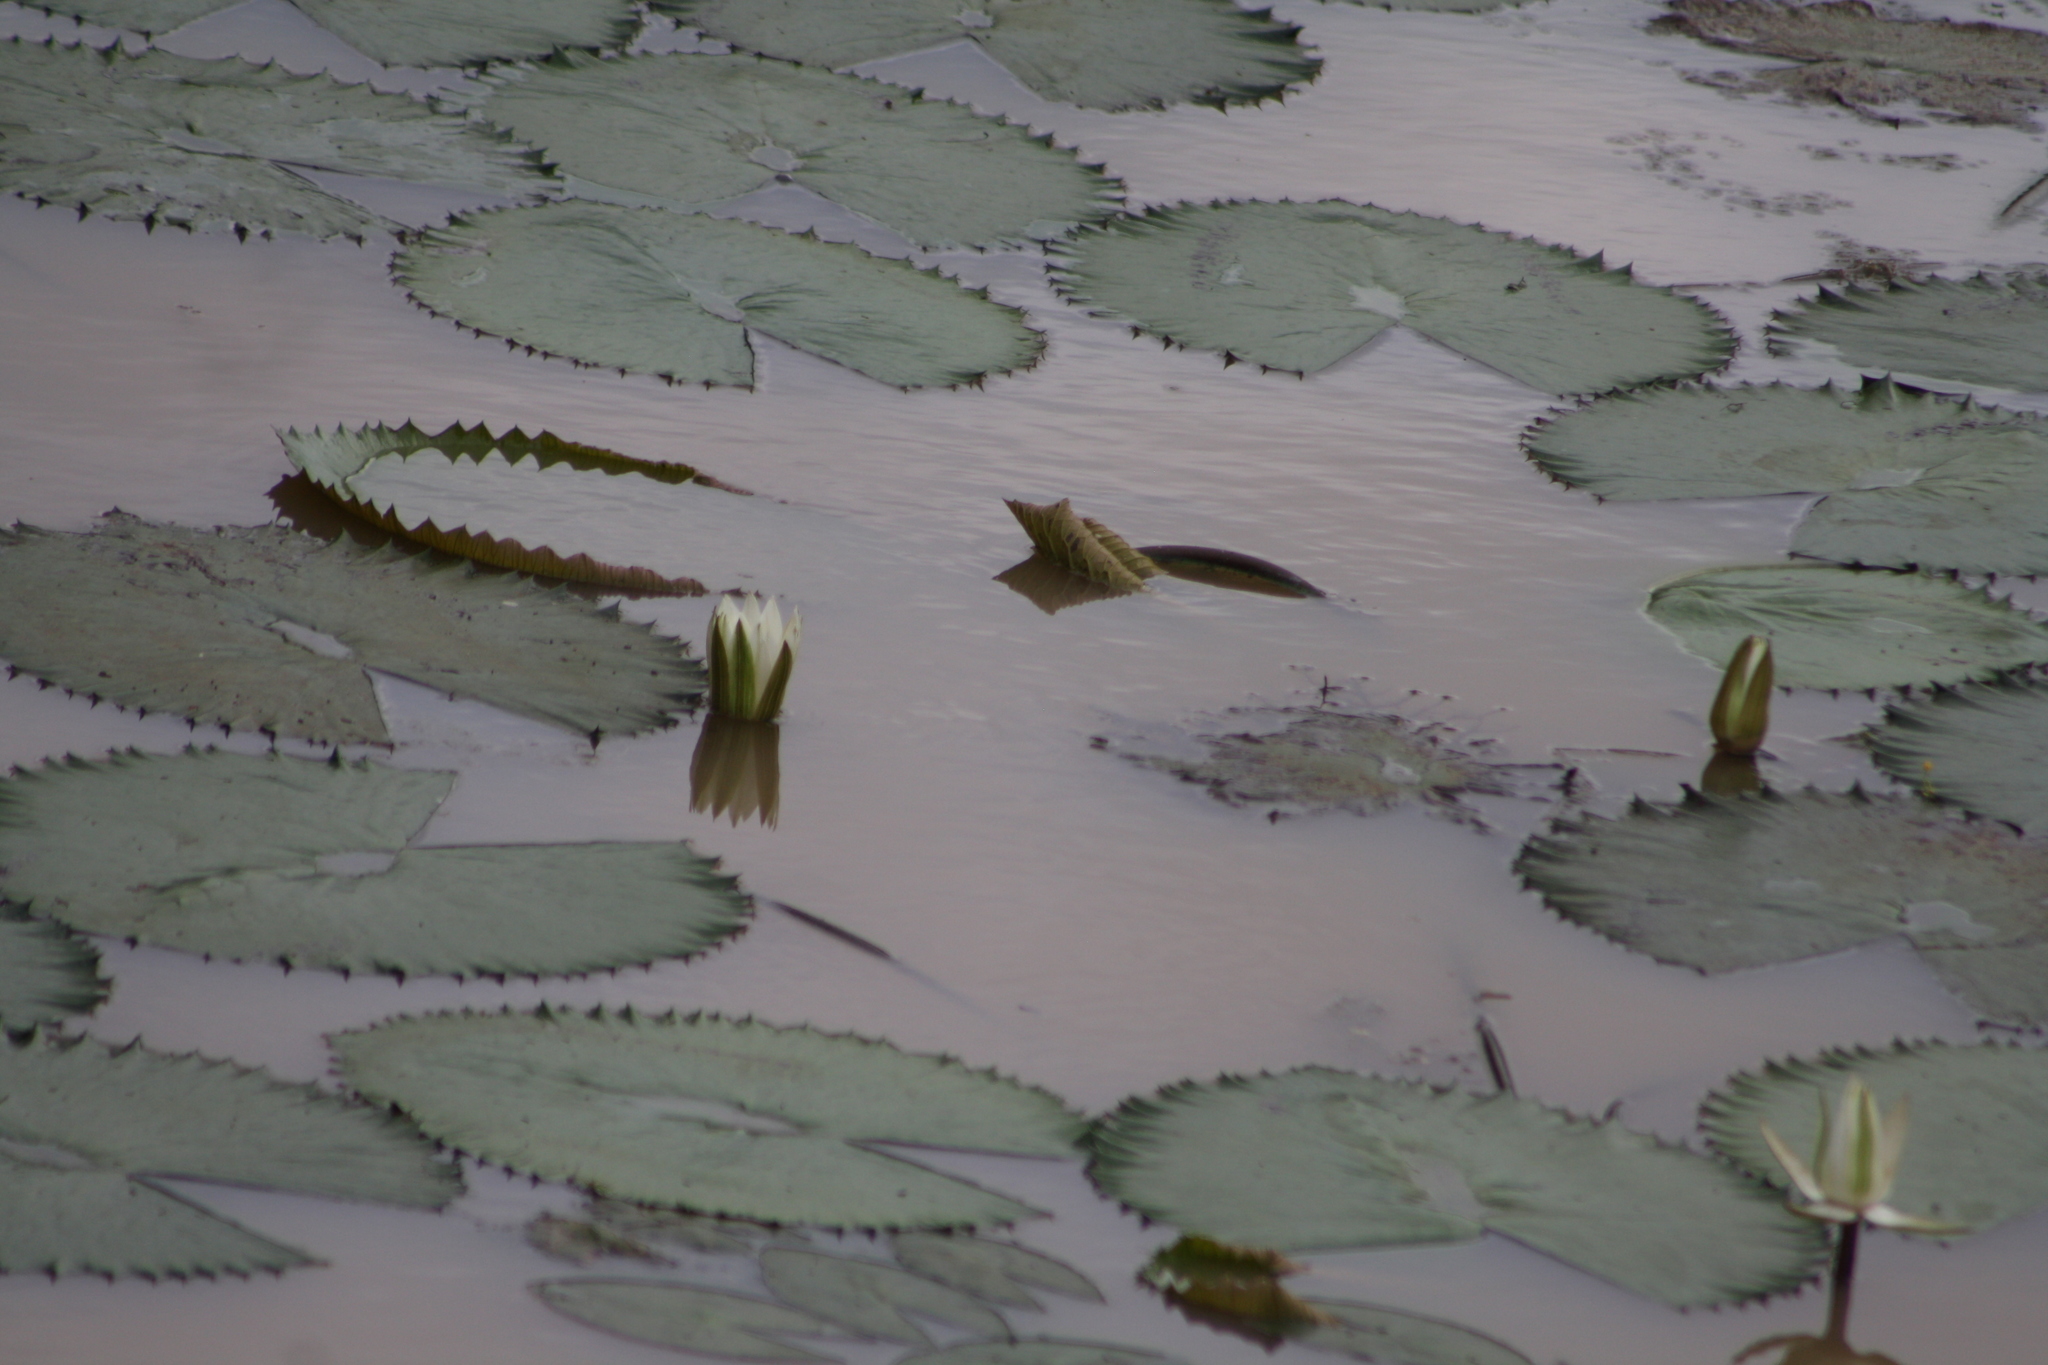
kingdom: Plantae
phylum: Tracheophyta
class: Magnoliopsida
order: Nymphaeales
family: Nymphaeaceae
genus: Nymphaea
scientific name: Nymphaea lotus
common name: White egyptian lotus
